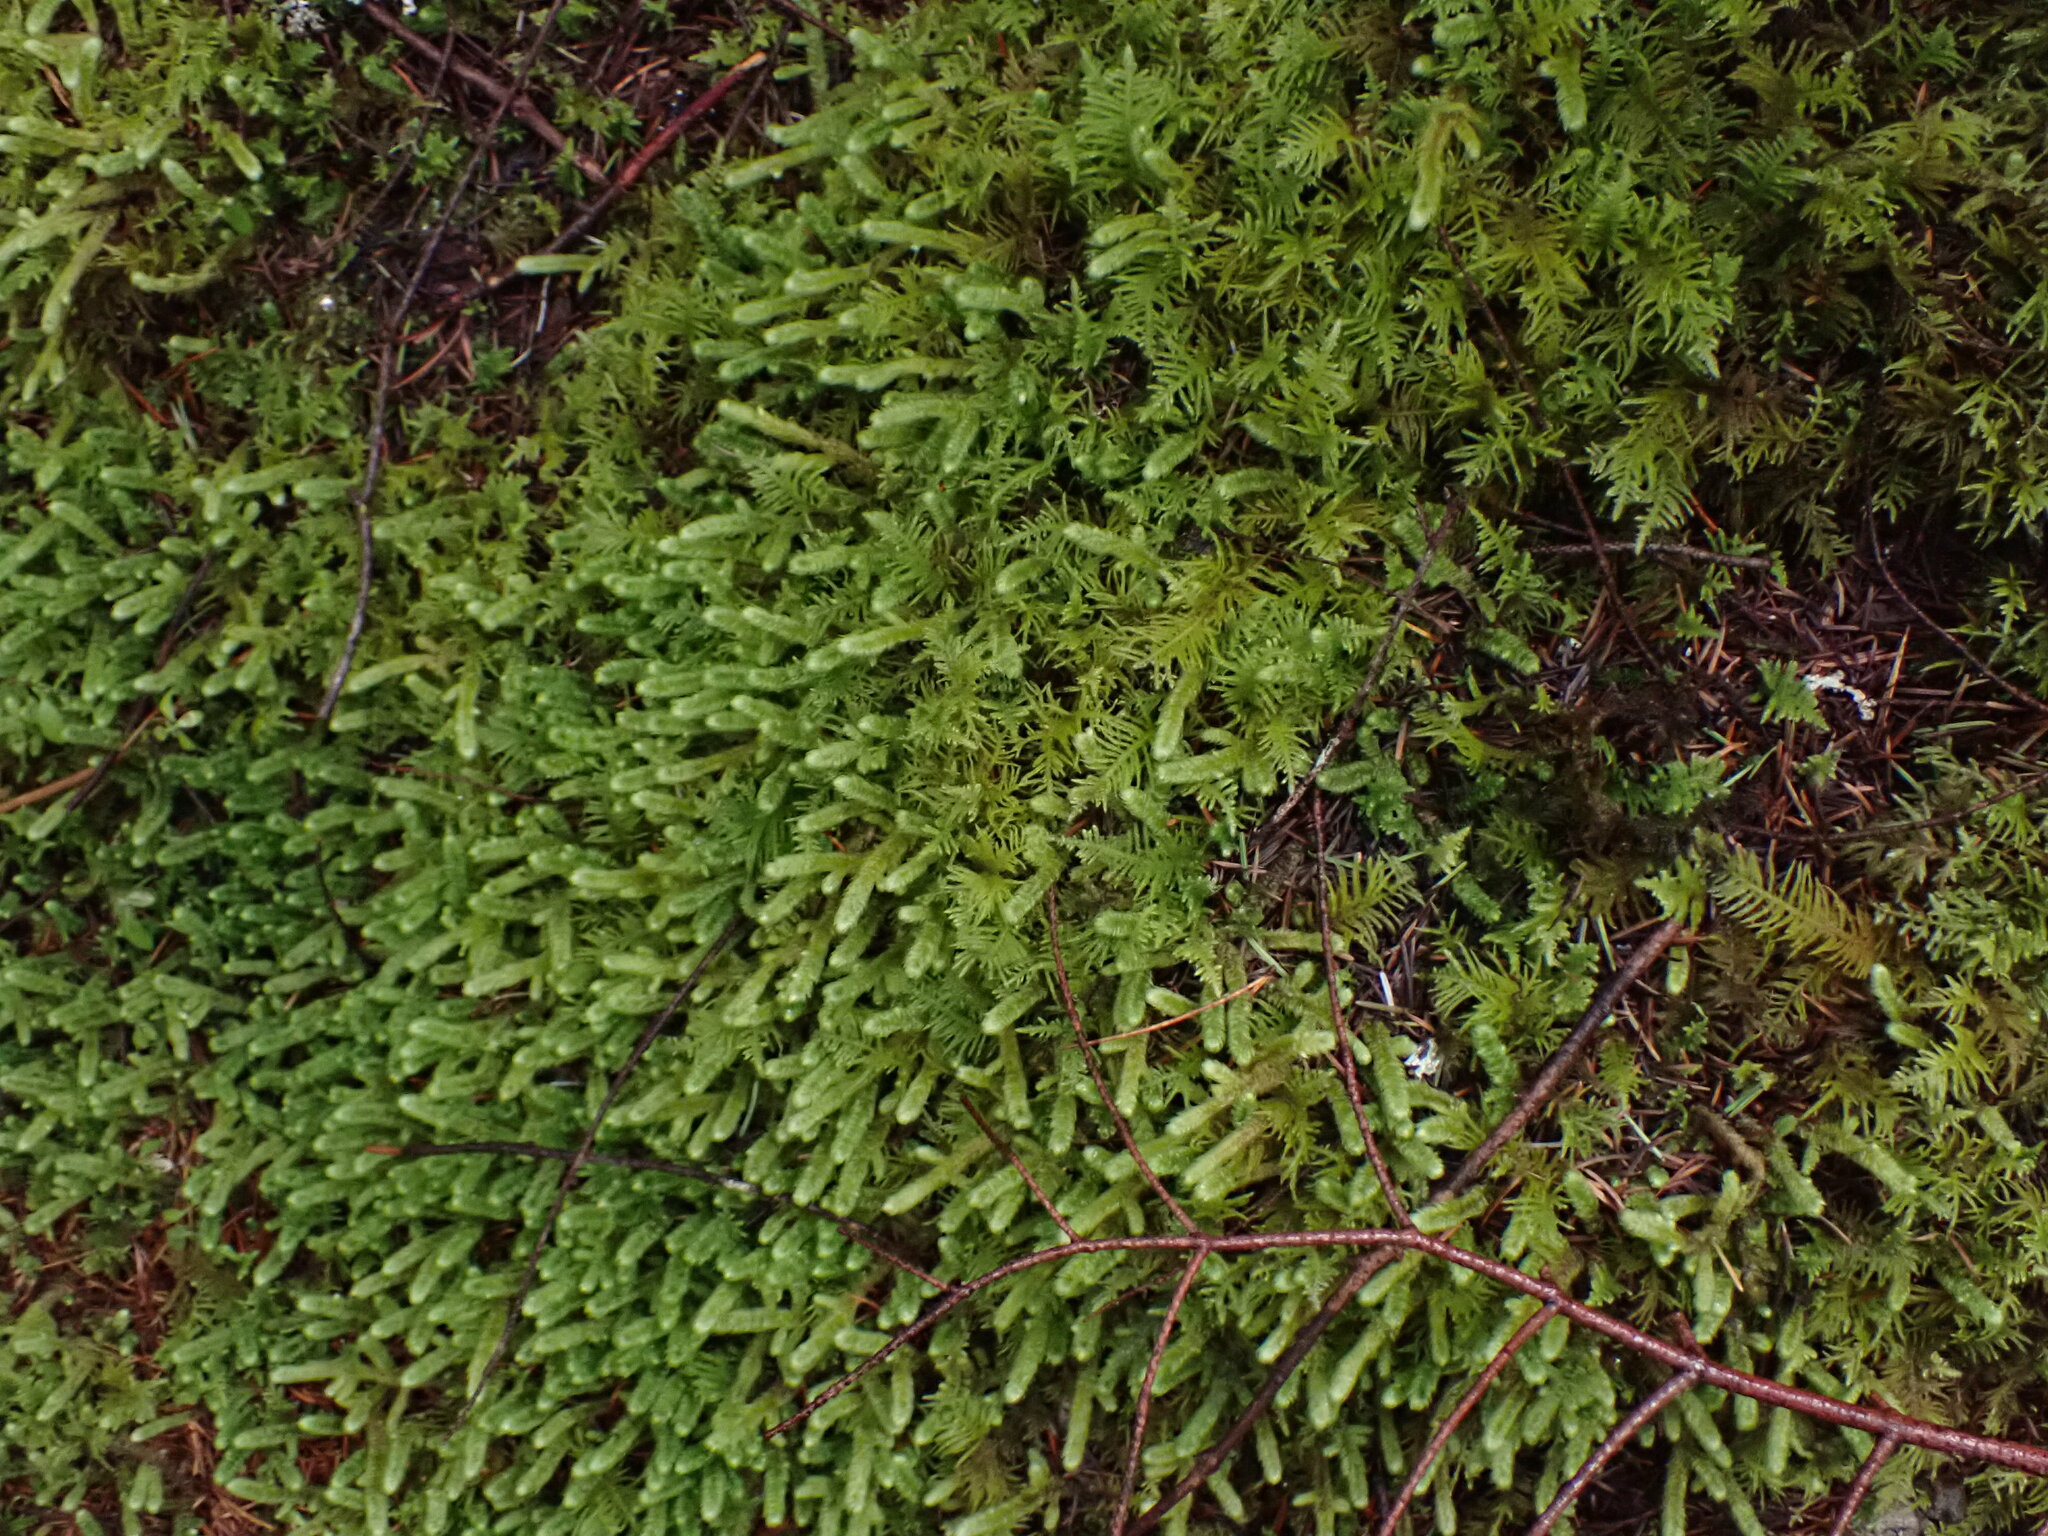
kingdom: Plantae
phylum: Bryophyta
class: Bryopsida
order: Hypnales
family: Hylocomiaceae
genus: Rhytidiopsis
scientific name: Rhytidiopsis robusta
